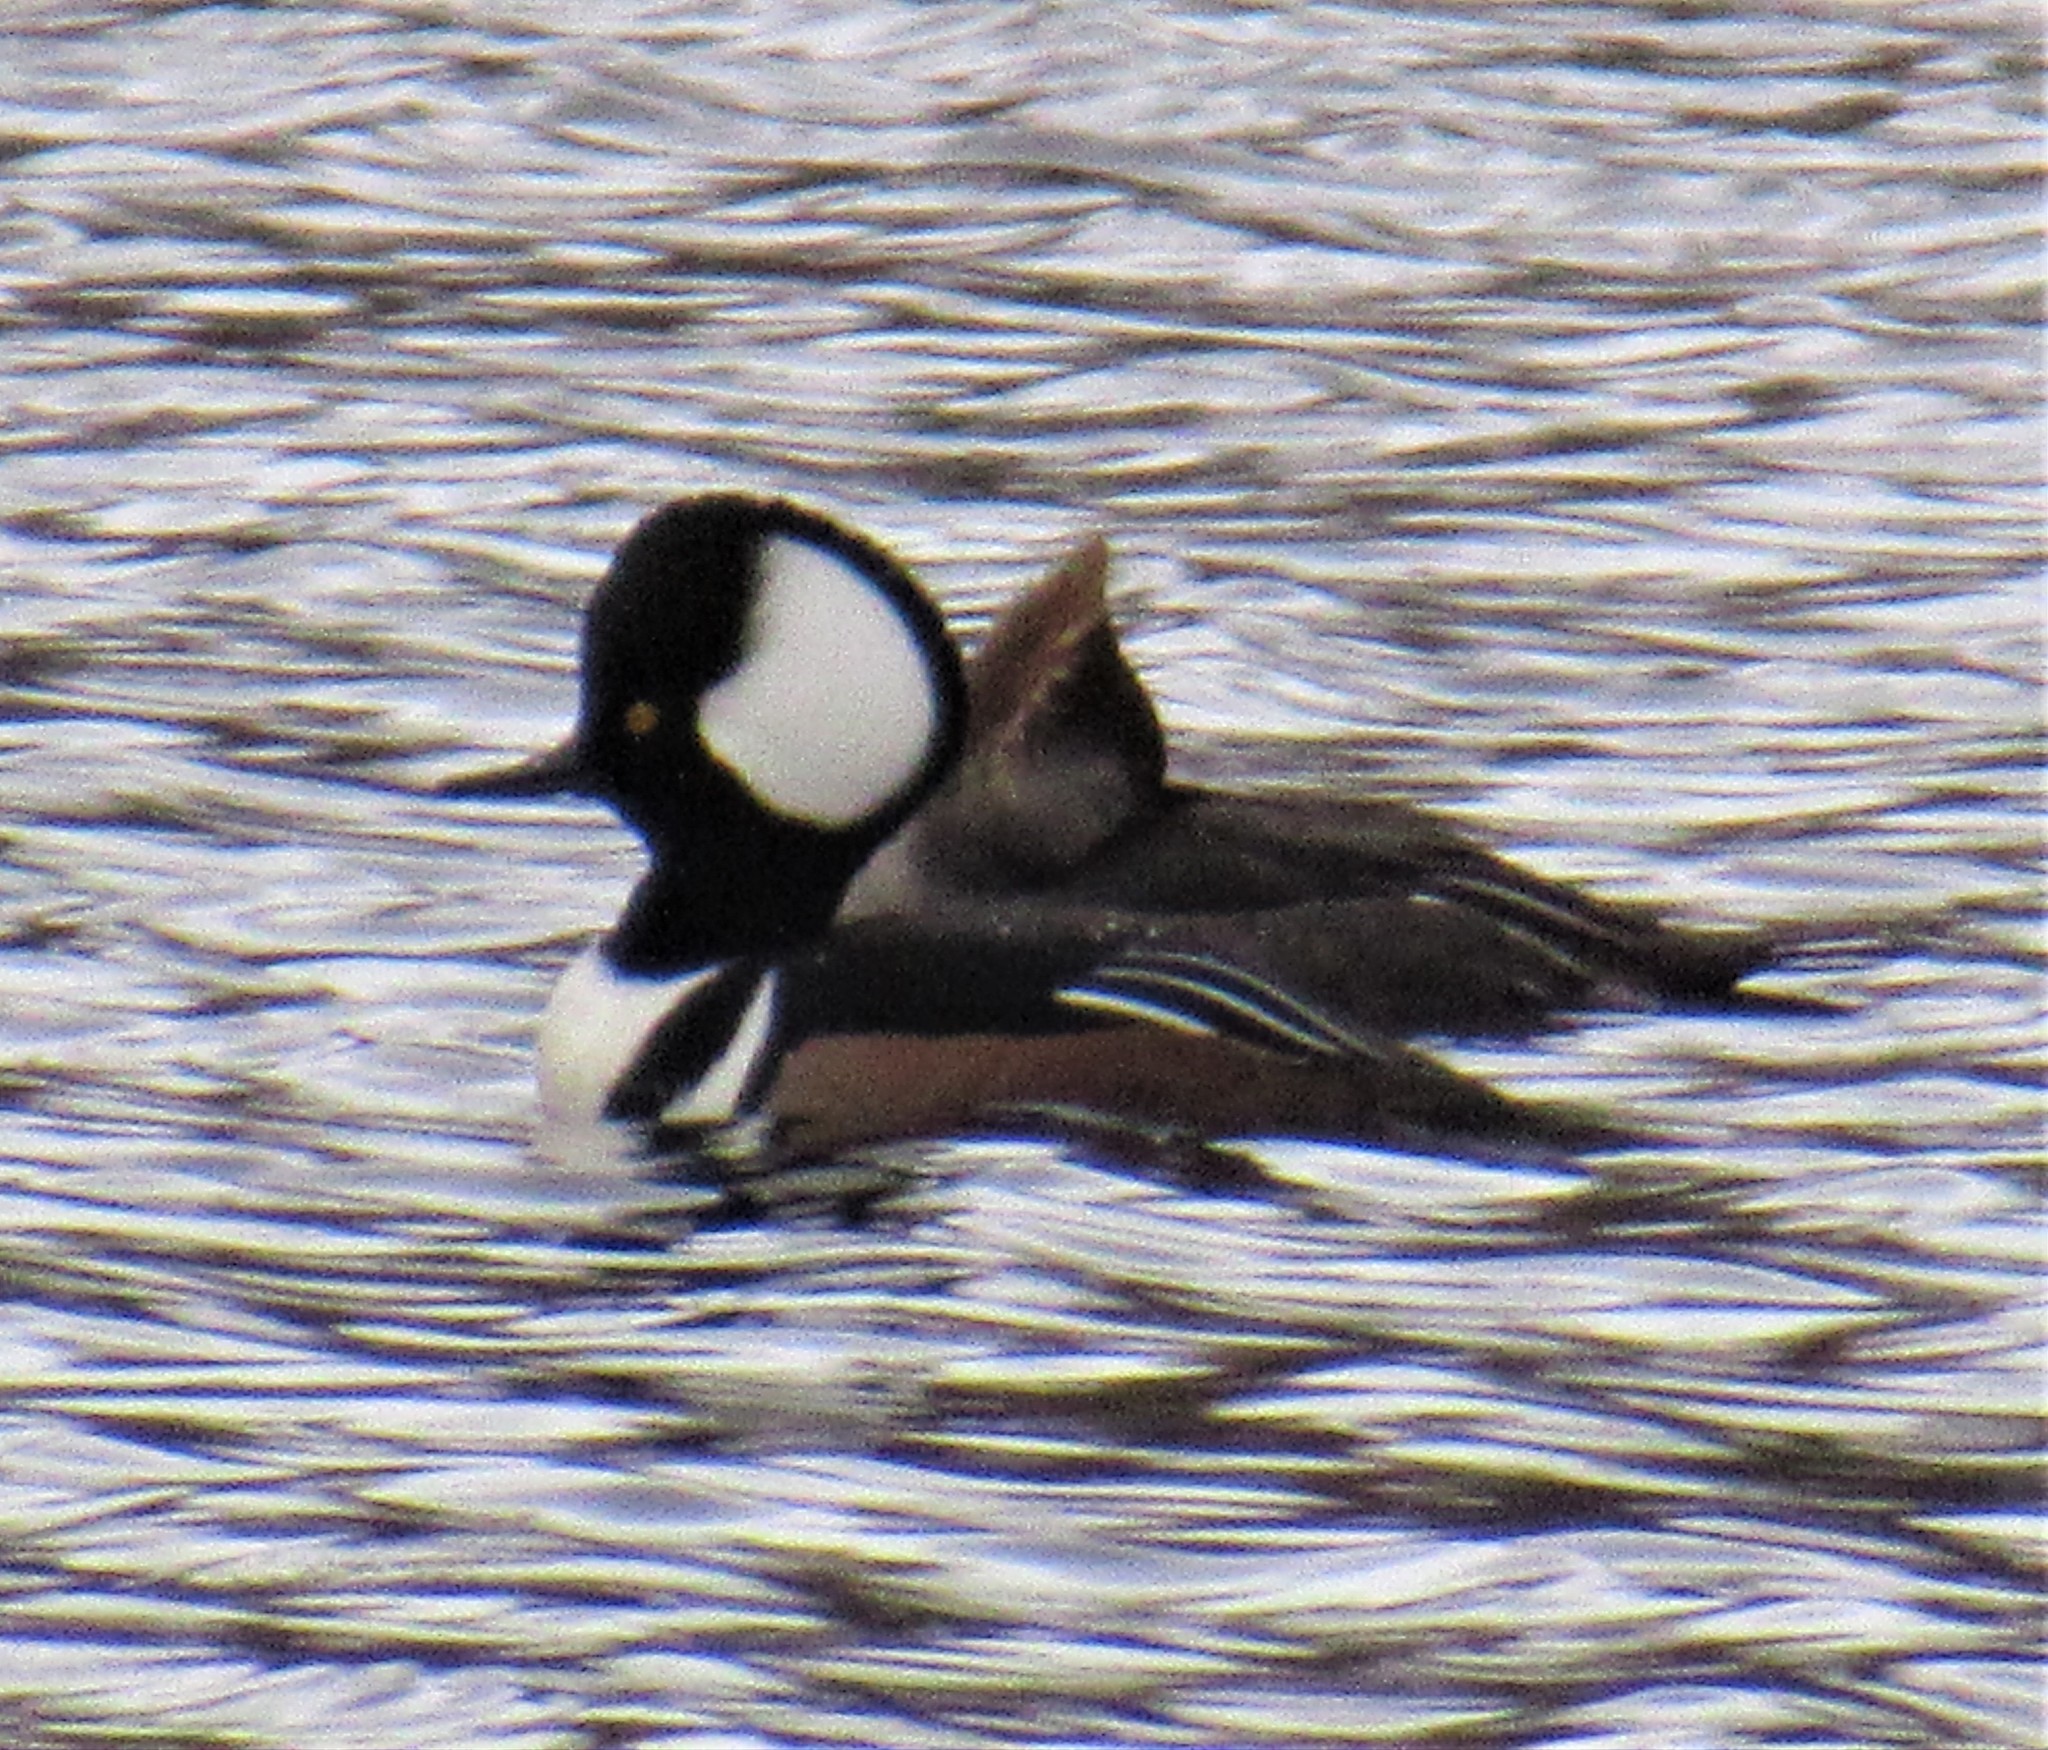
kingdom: Animalia
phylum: Chordata
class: Aves
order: Anseriformes
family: Anatidae
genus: Lophodytes
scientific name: Lophodytes cucullatus
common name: Hooded merganser
